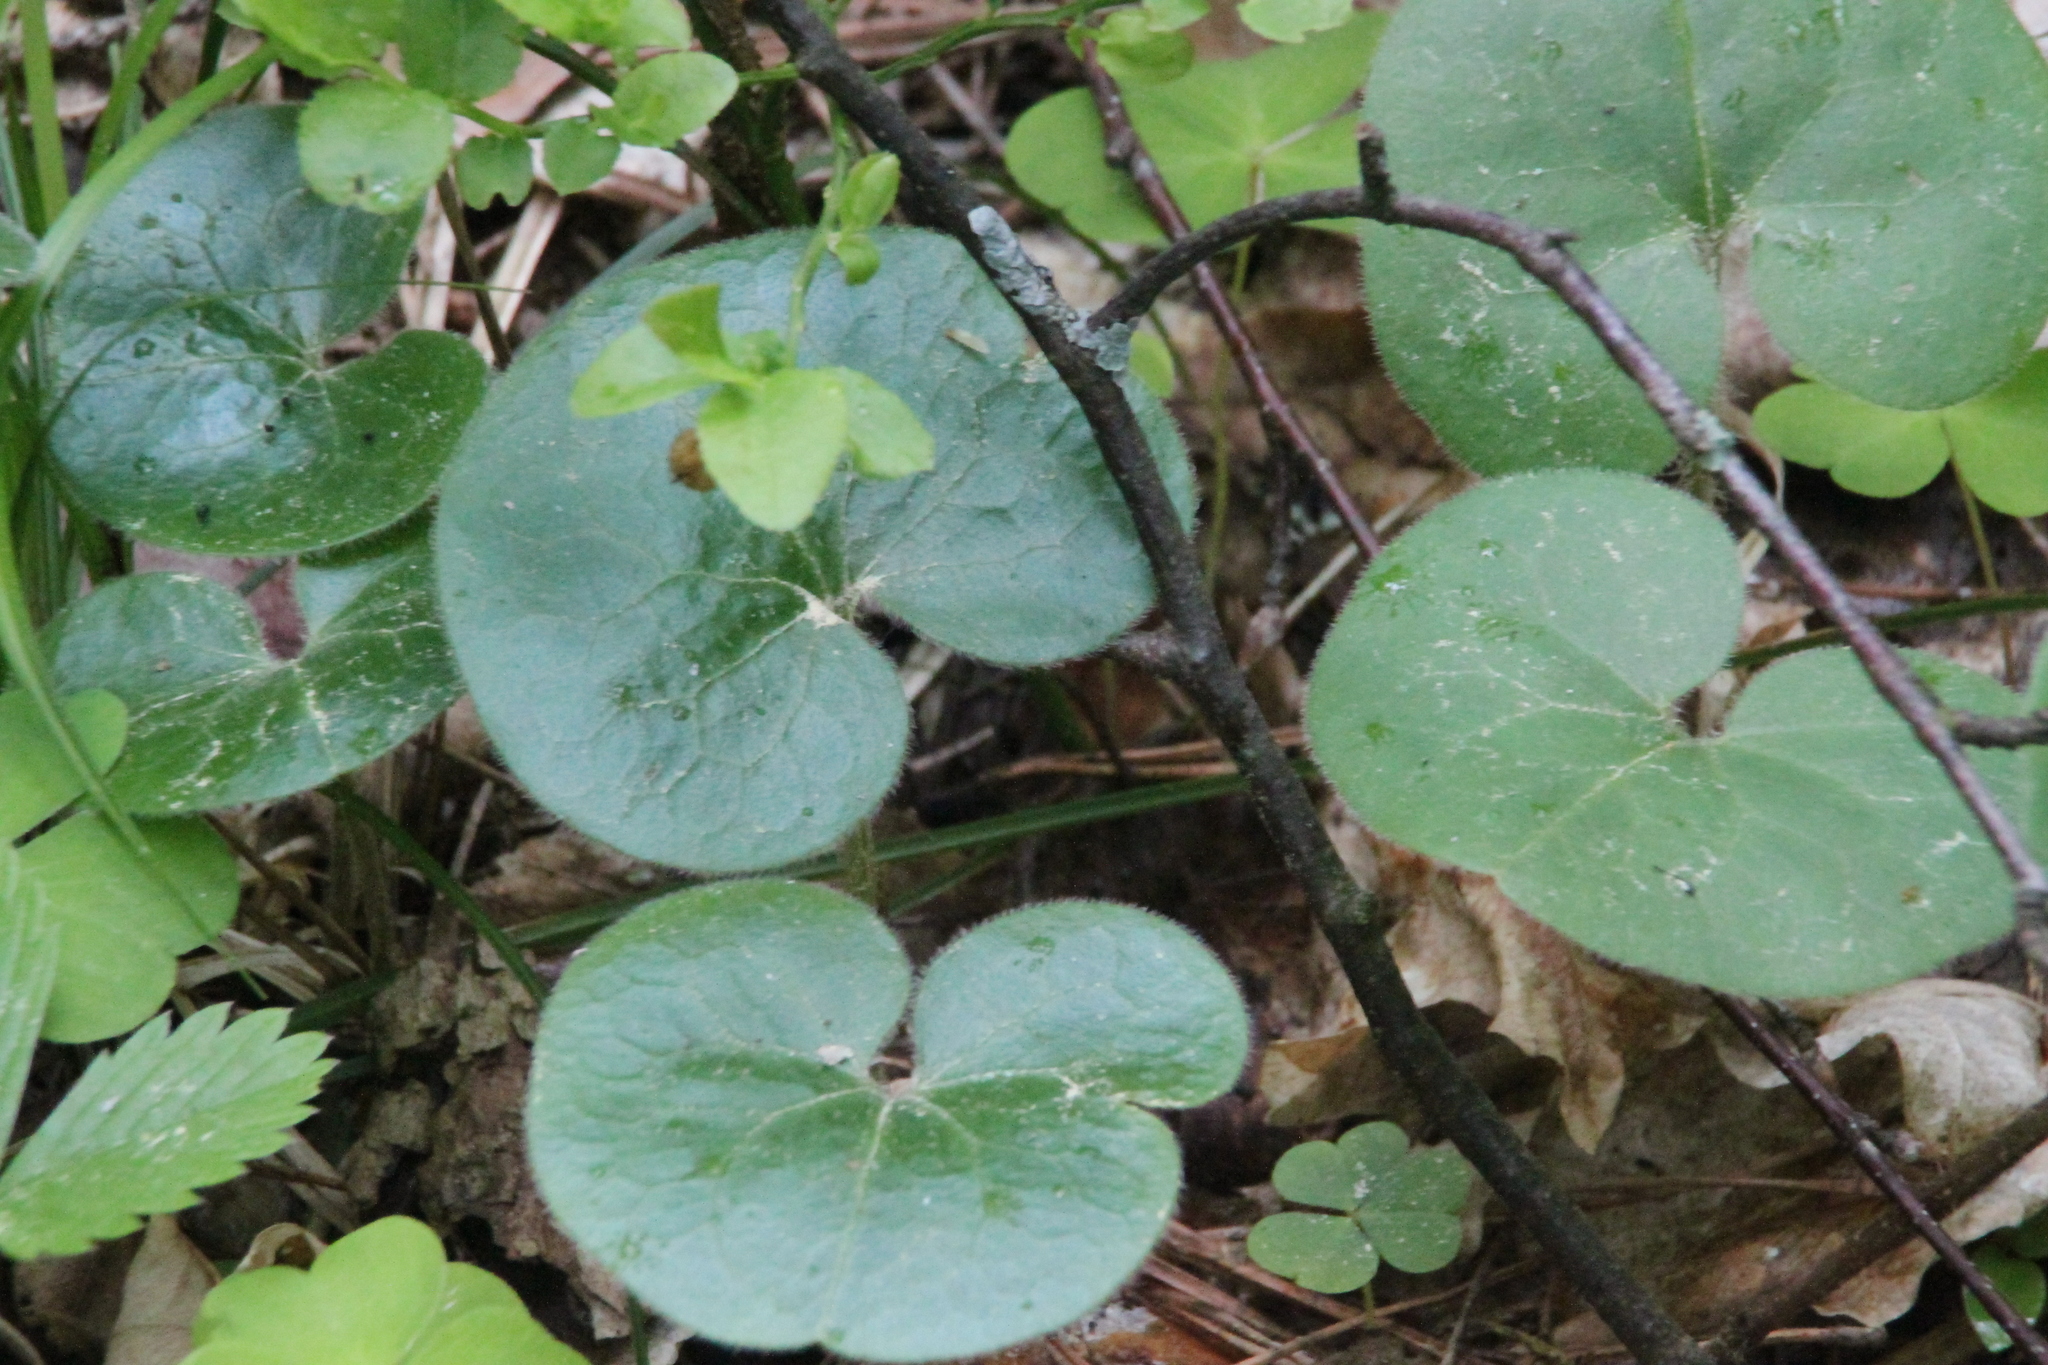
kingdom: Plantae
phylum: Tracheophyta
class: Magnoliopsida
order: Piperales
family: Aristolochiaceae
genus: Asarum
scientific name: Asarum europaeum
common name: Asarabacca
